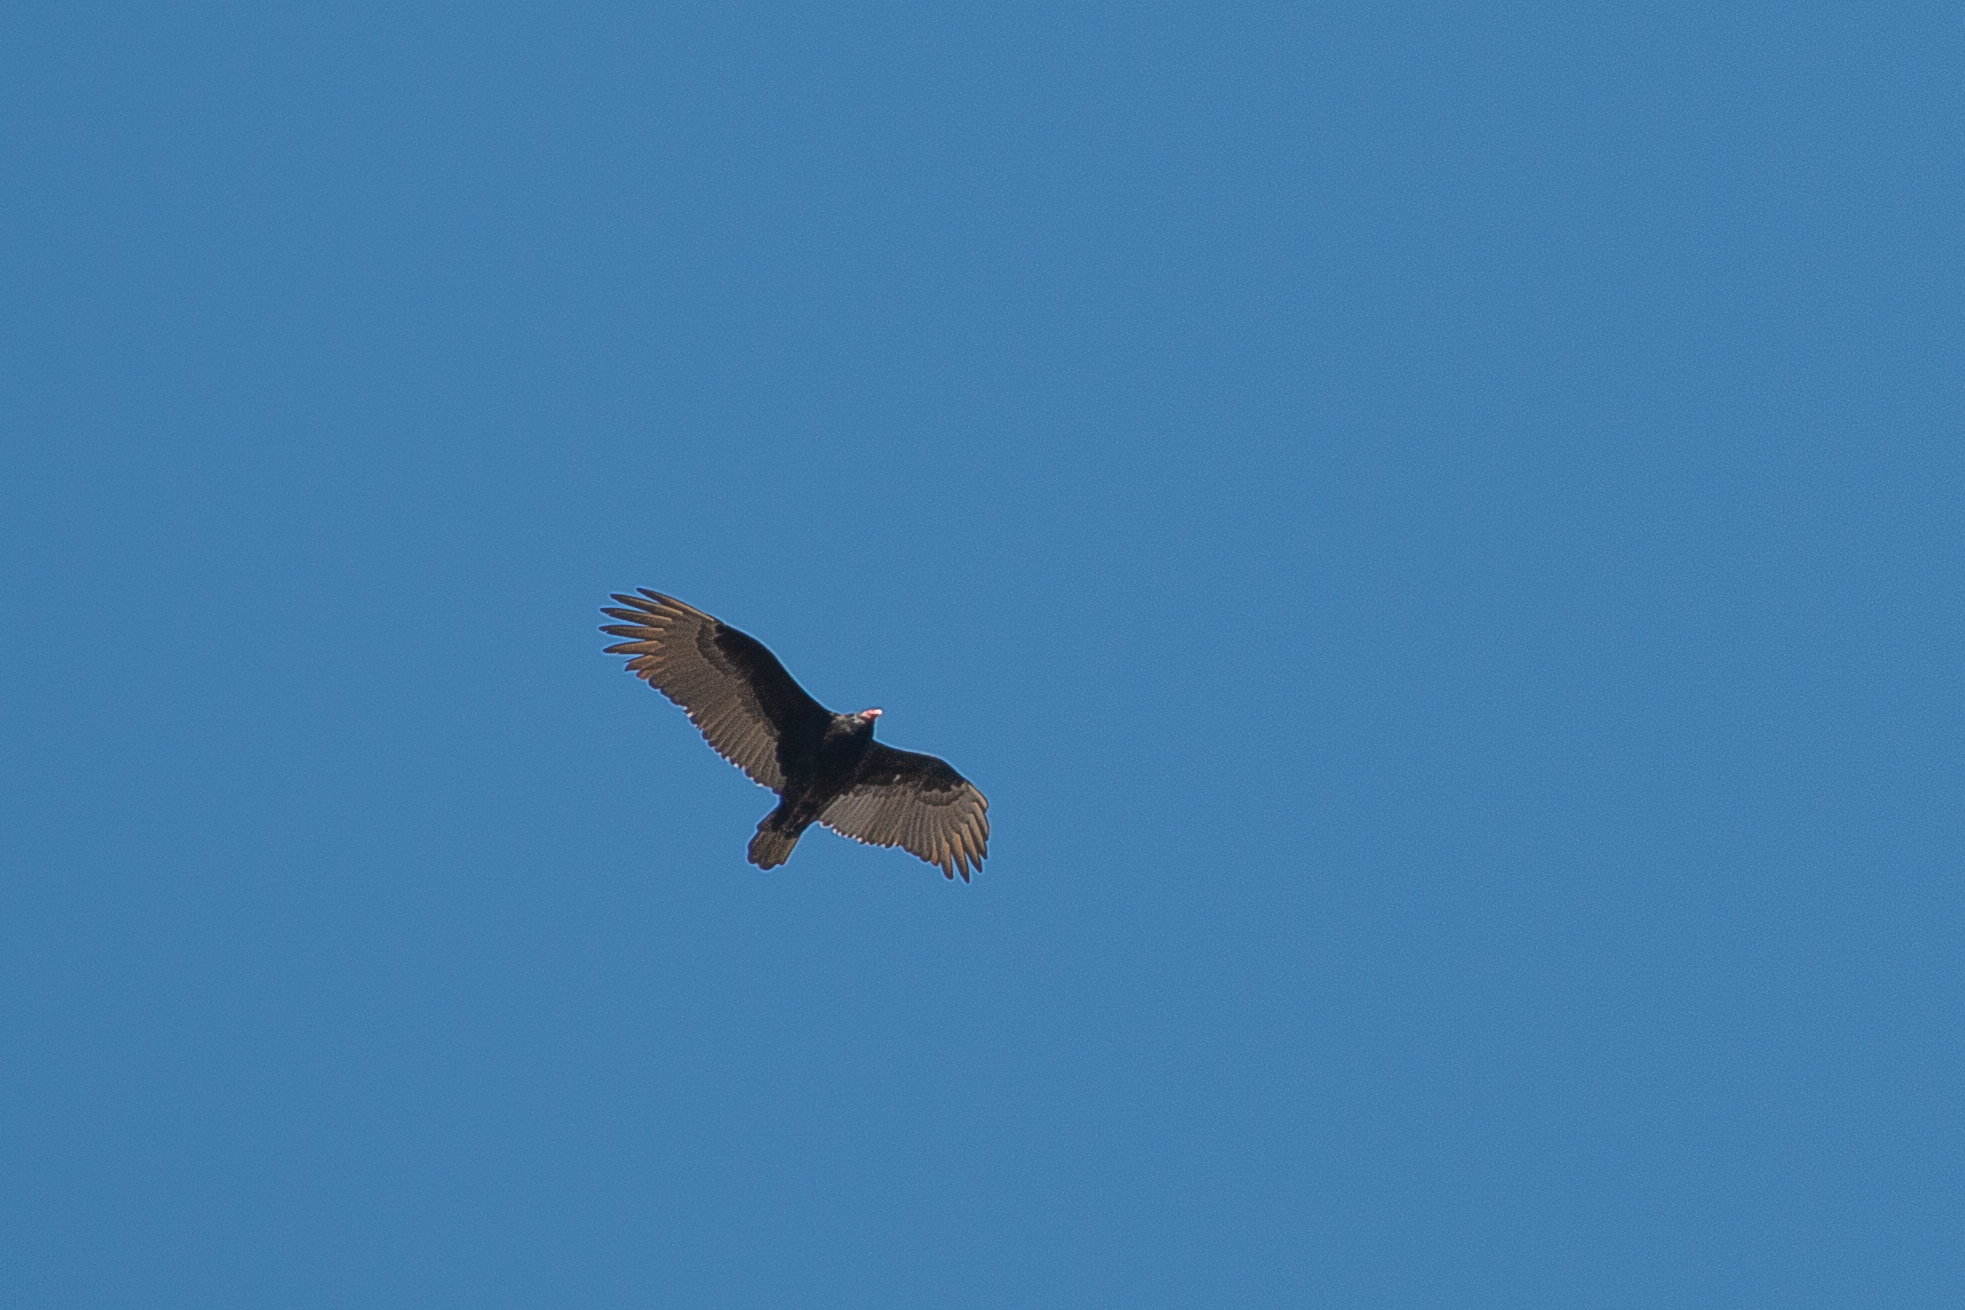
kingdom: Animalia
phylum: Chordata
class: Aves
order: Accipitriformes
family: Cathartidae
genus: Cathartes
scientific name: Cathartes aura
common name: Turkey vulture
